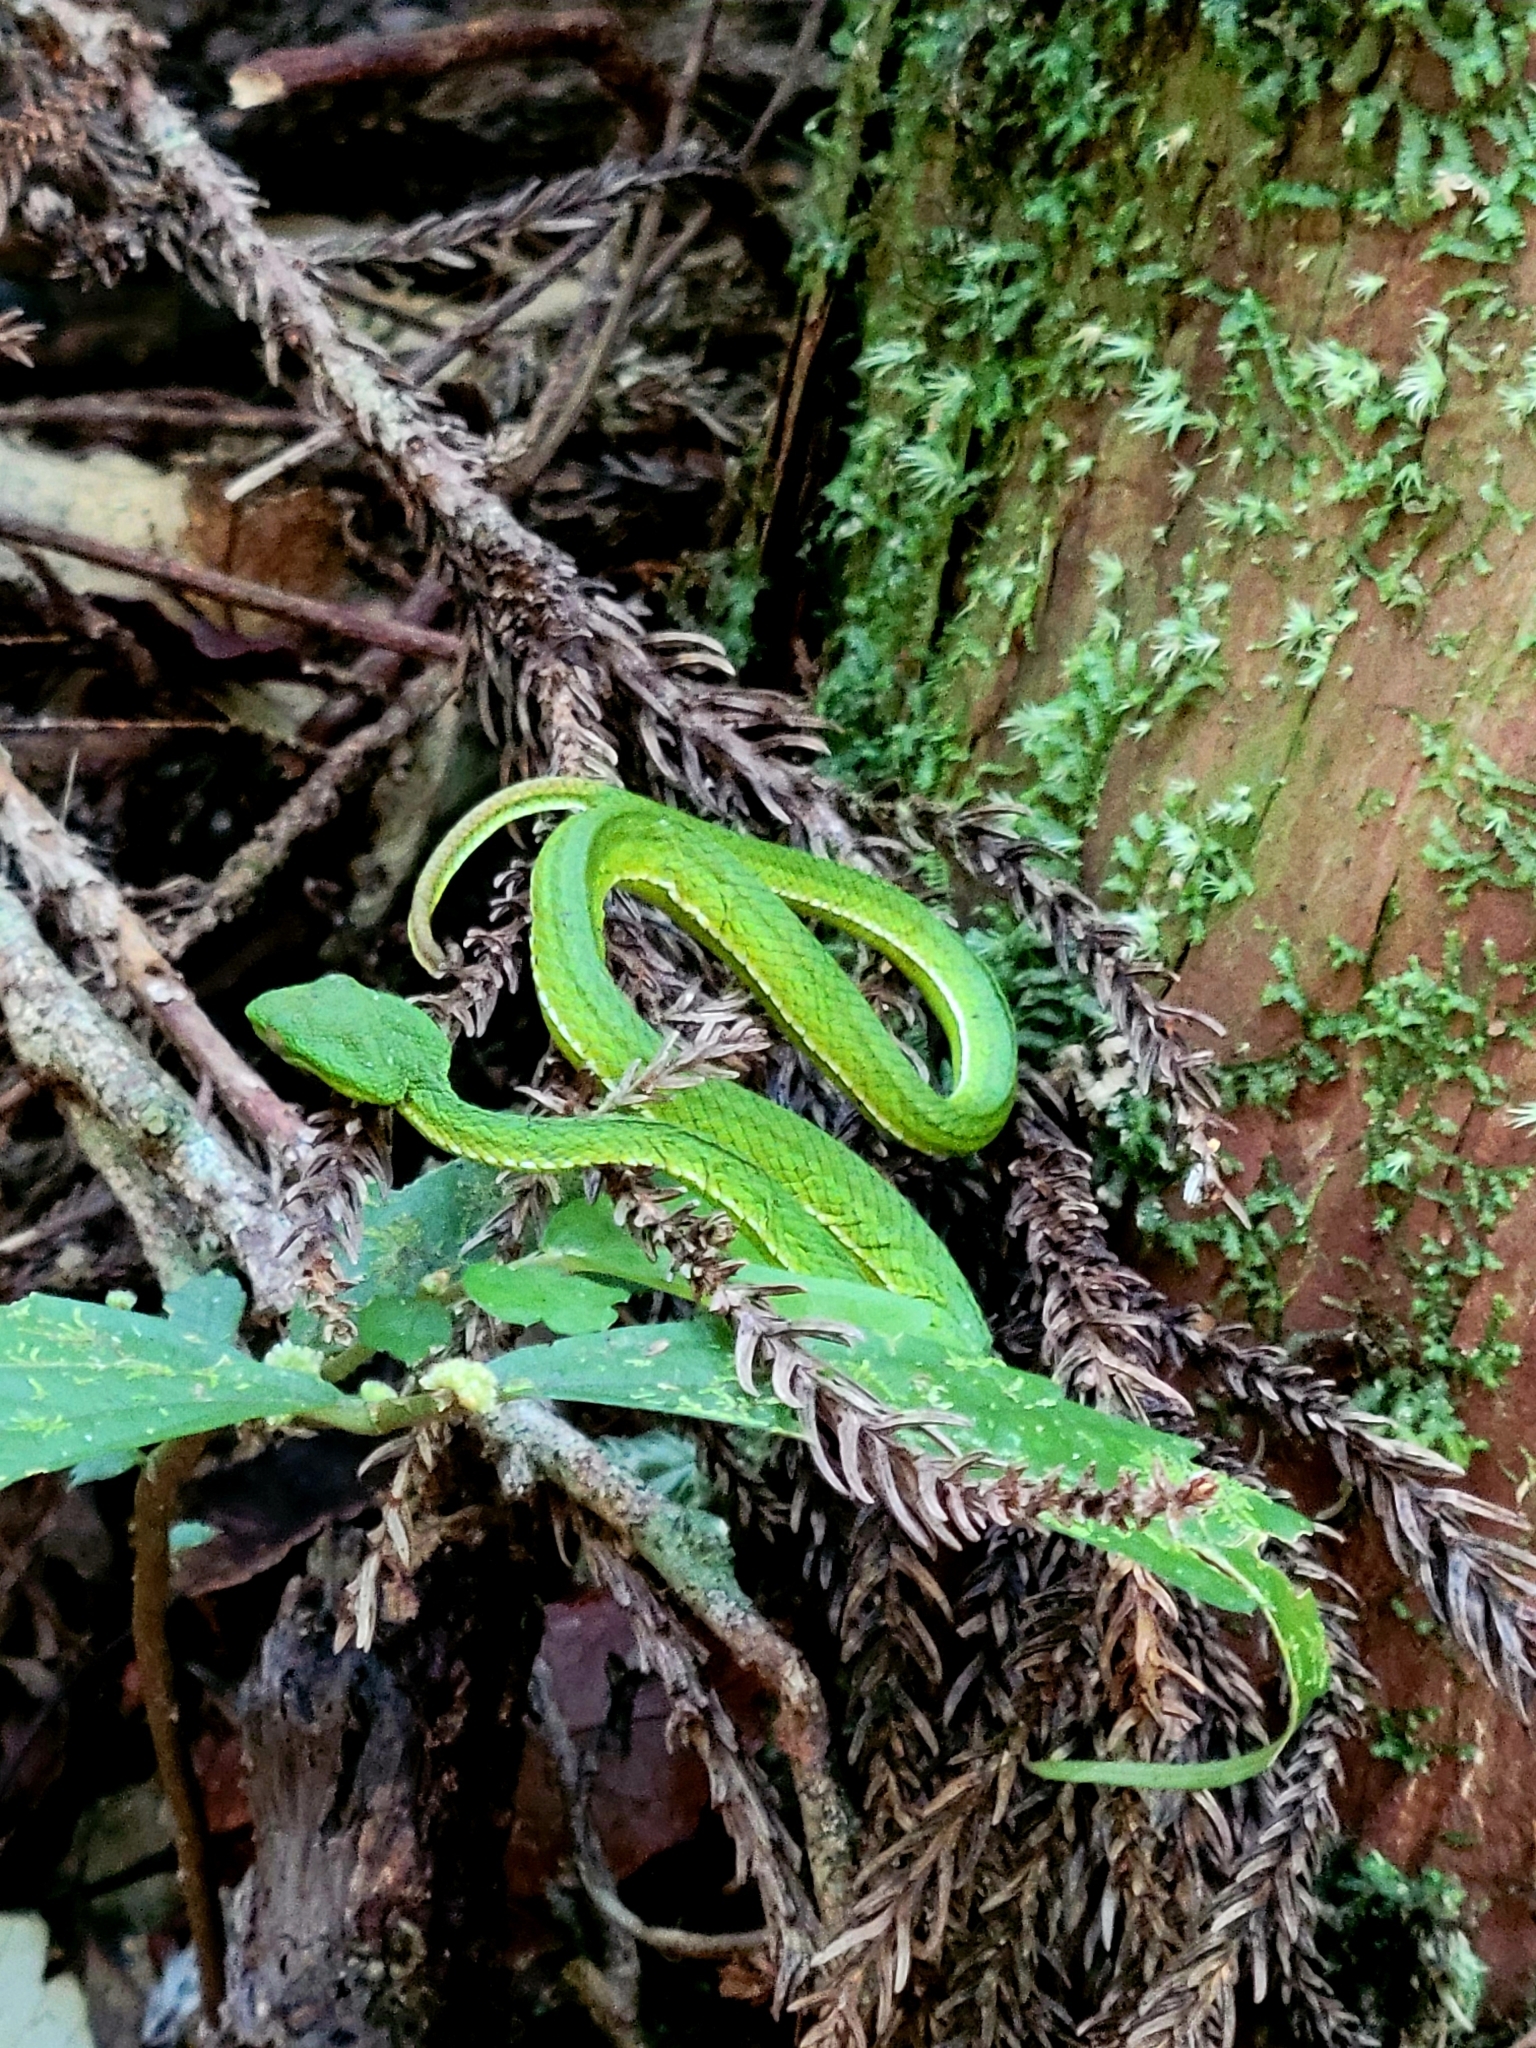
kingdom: Animalia
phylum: Chordata
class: Squamata
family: Viperidae
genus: Trimeresurus
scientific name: Trimeresurus stejnegeri
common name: Chen’s bamboo pit viper
